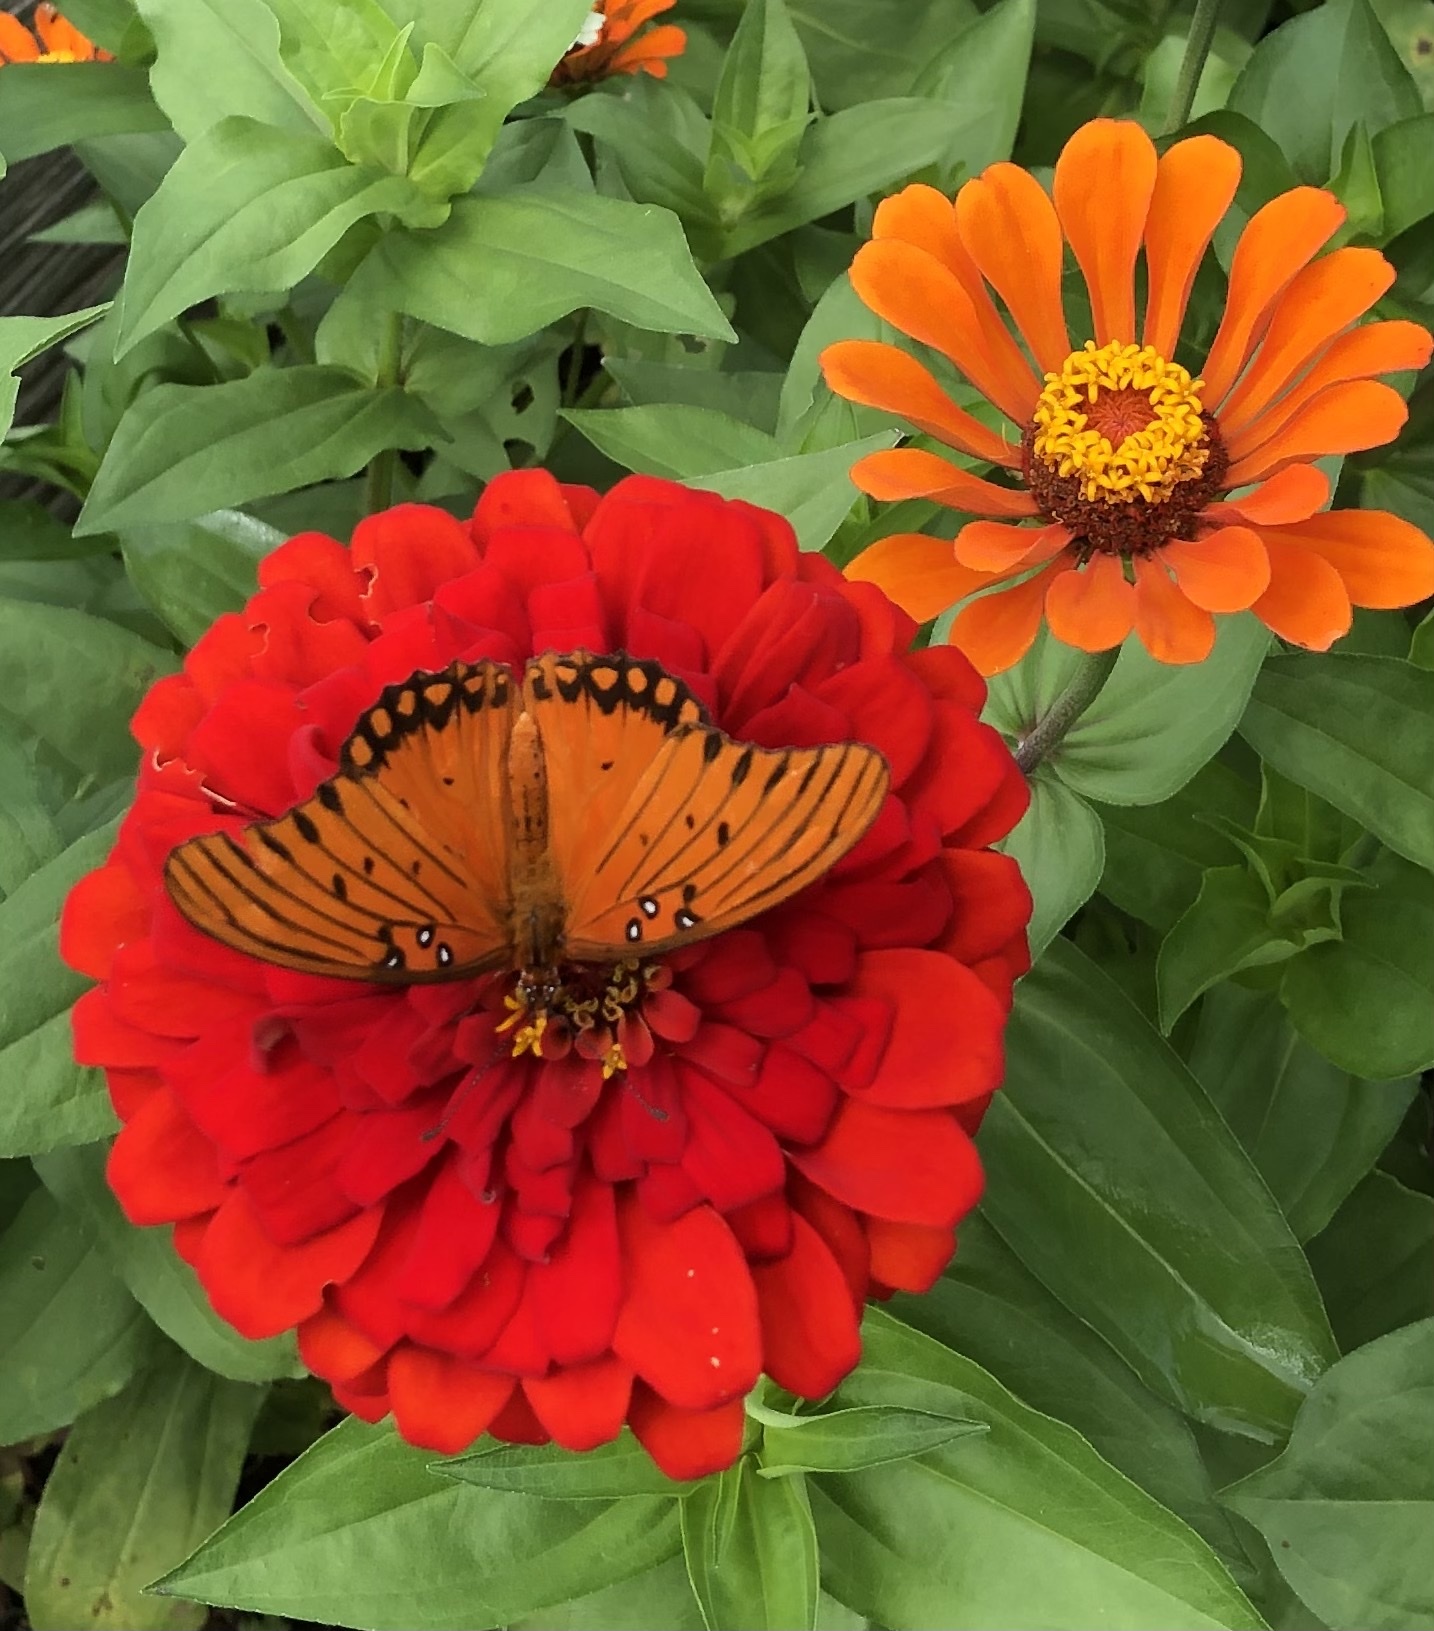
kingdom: Animalia
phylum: Arthropoda
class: Insecta
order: Lepidoptera
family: Nymphalidae
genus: Dione
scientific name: Dione vanillae
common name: Gulf fritillary
